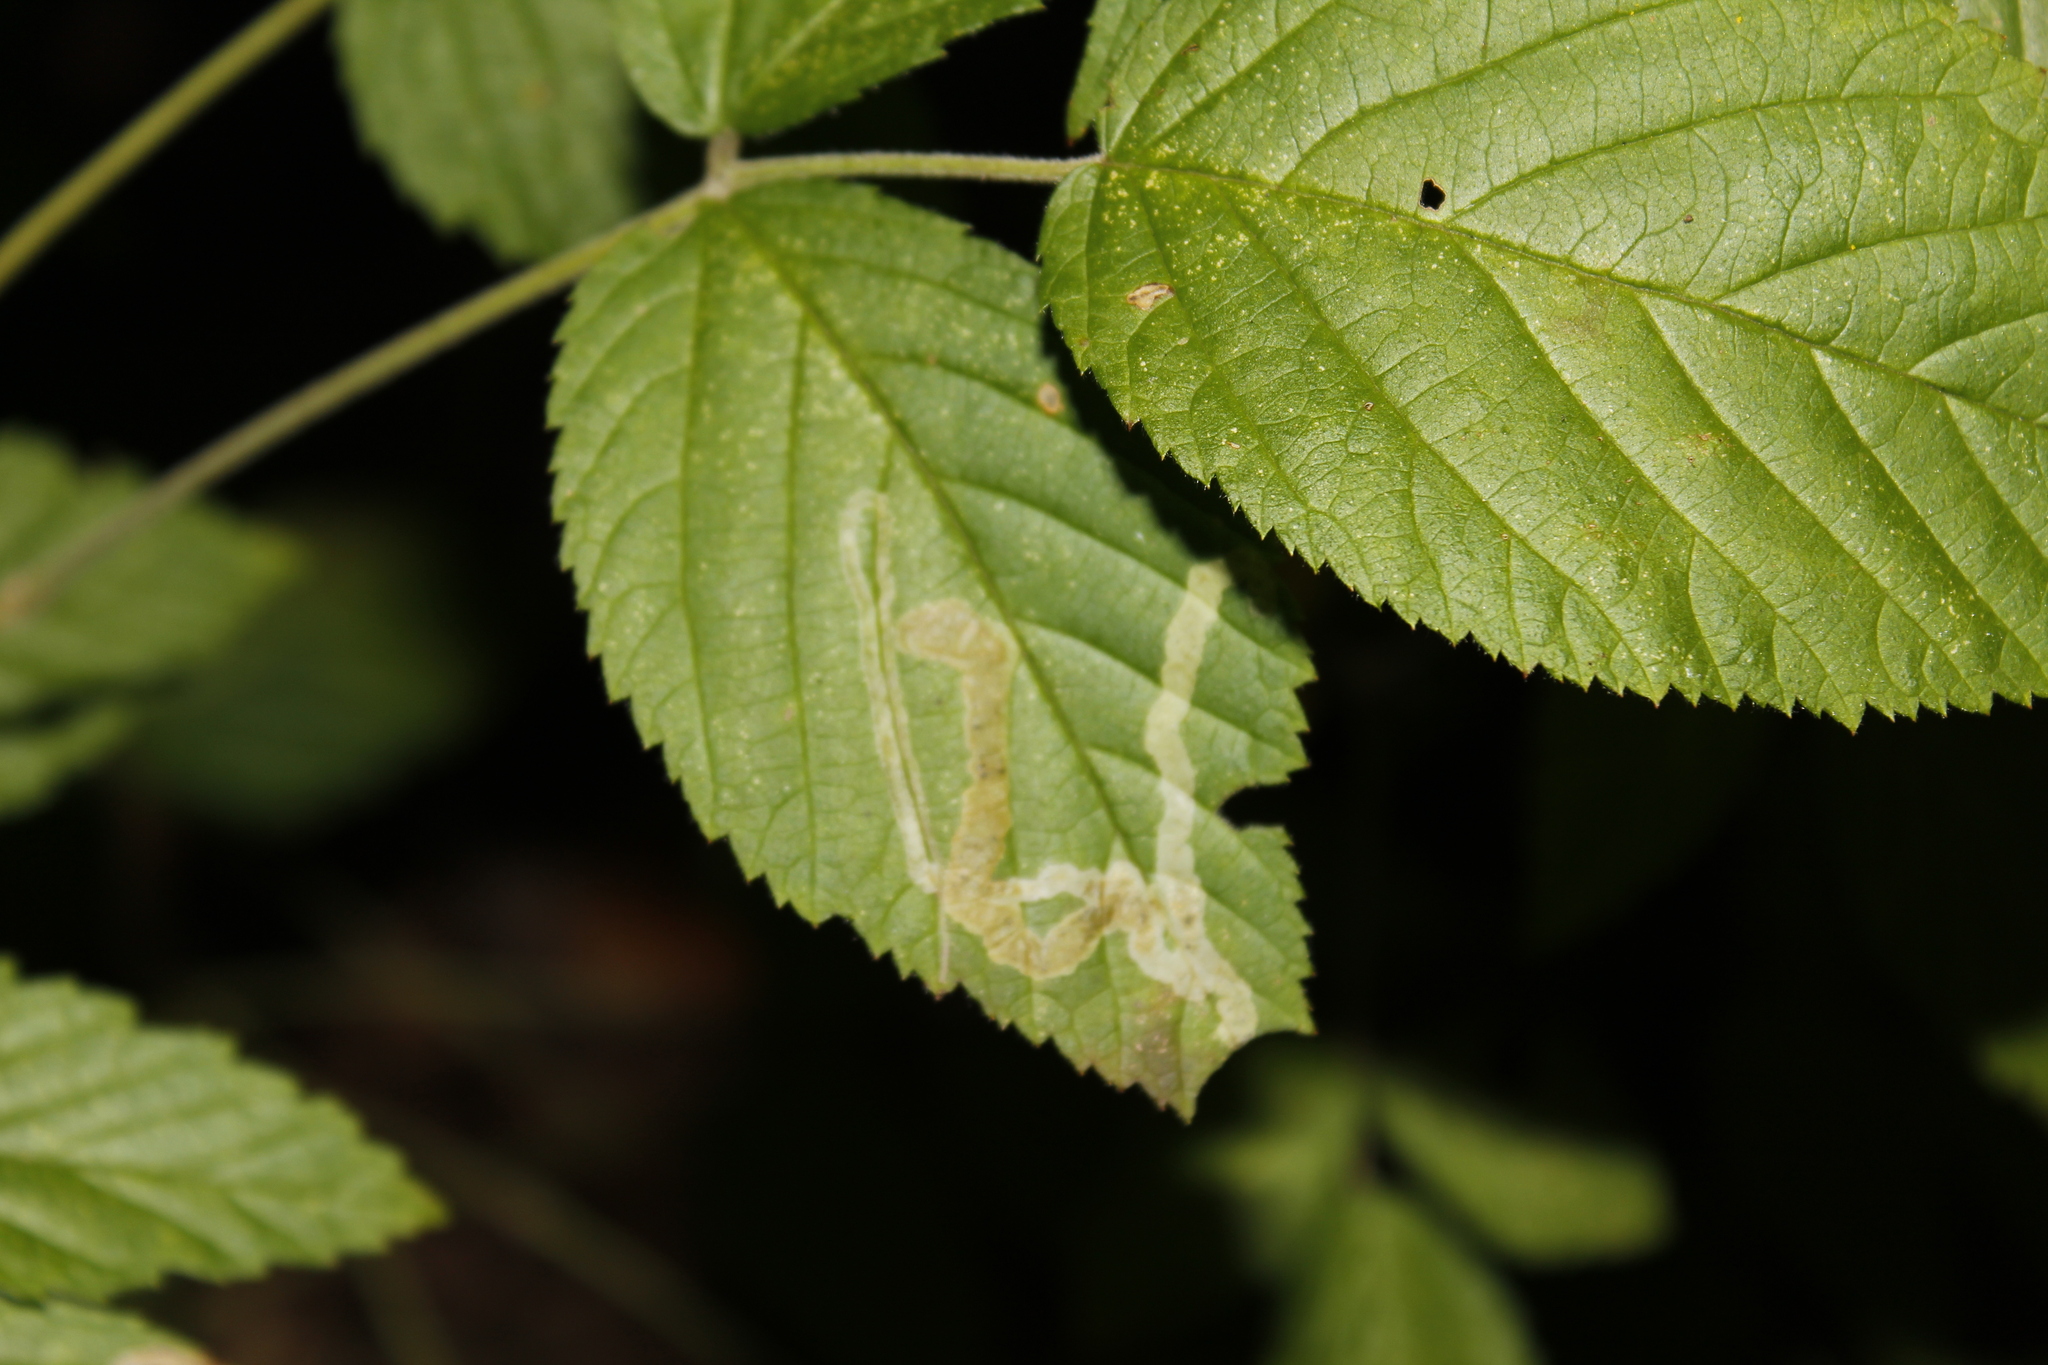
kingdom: Animalia
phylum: Arthropoda
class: Insecta
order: Diptera
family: Agromyzidae
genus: Agromyza
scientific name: Agromyza vockerothi
